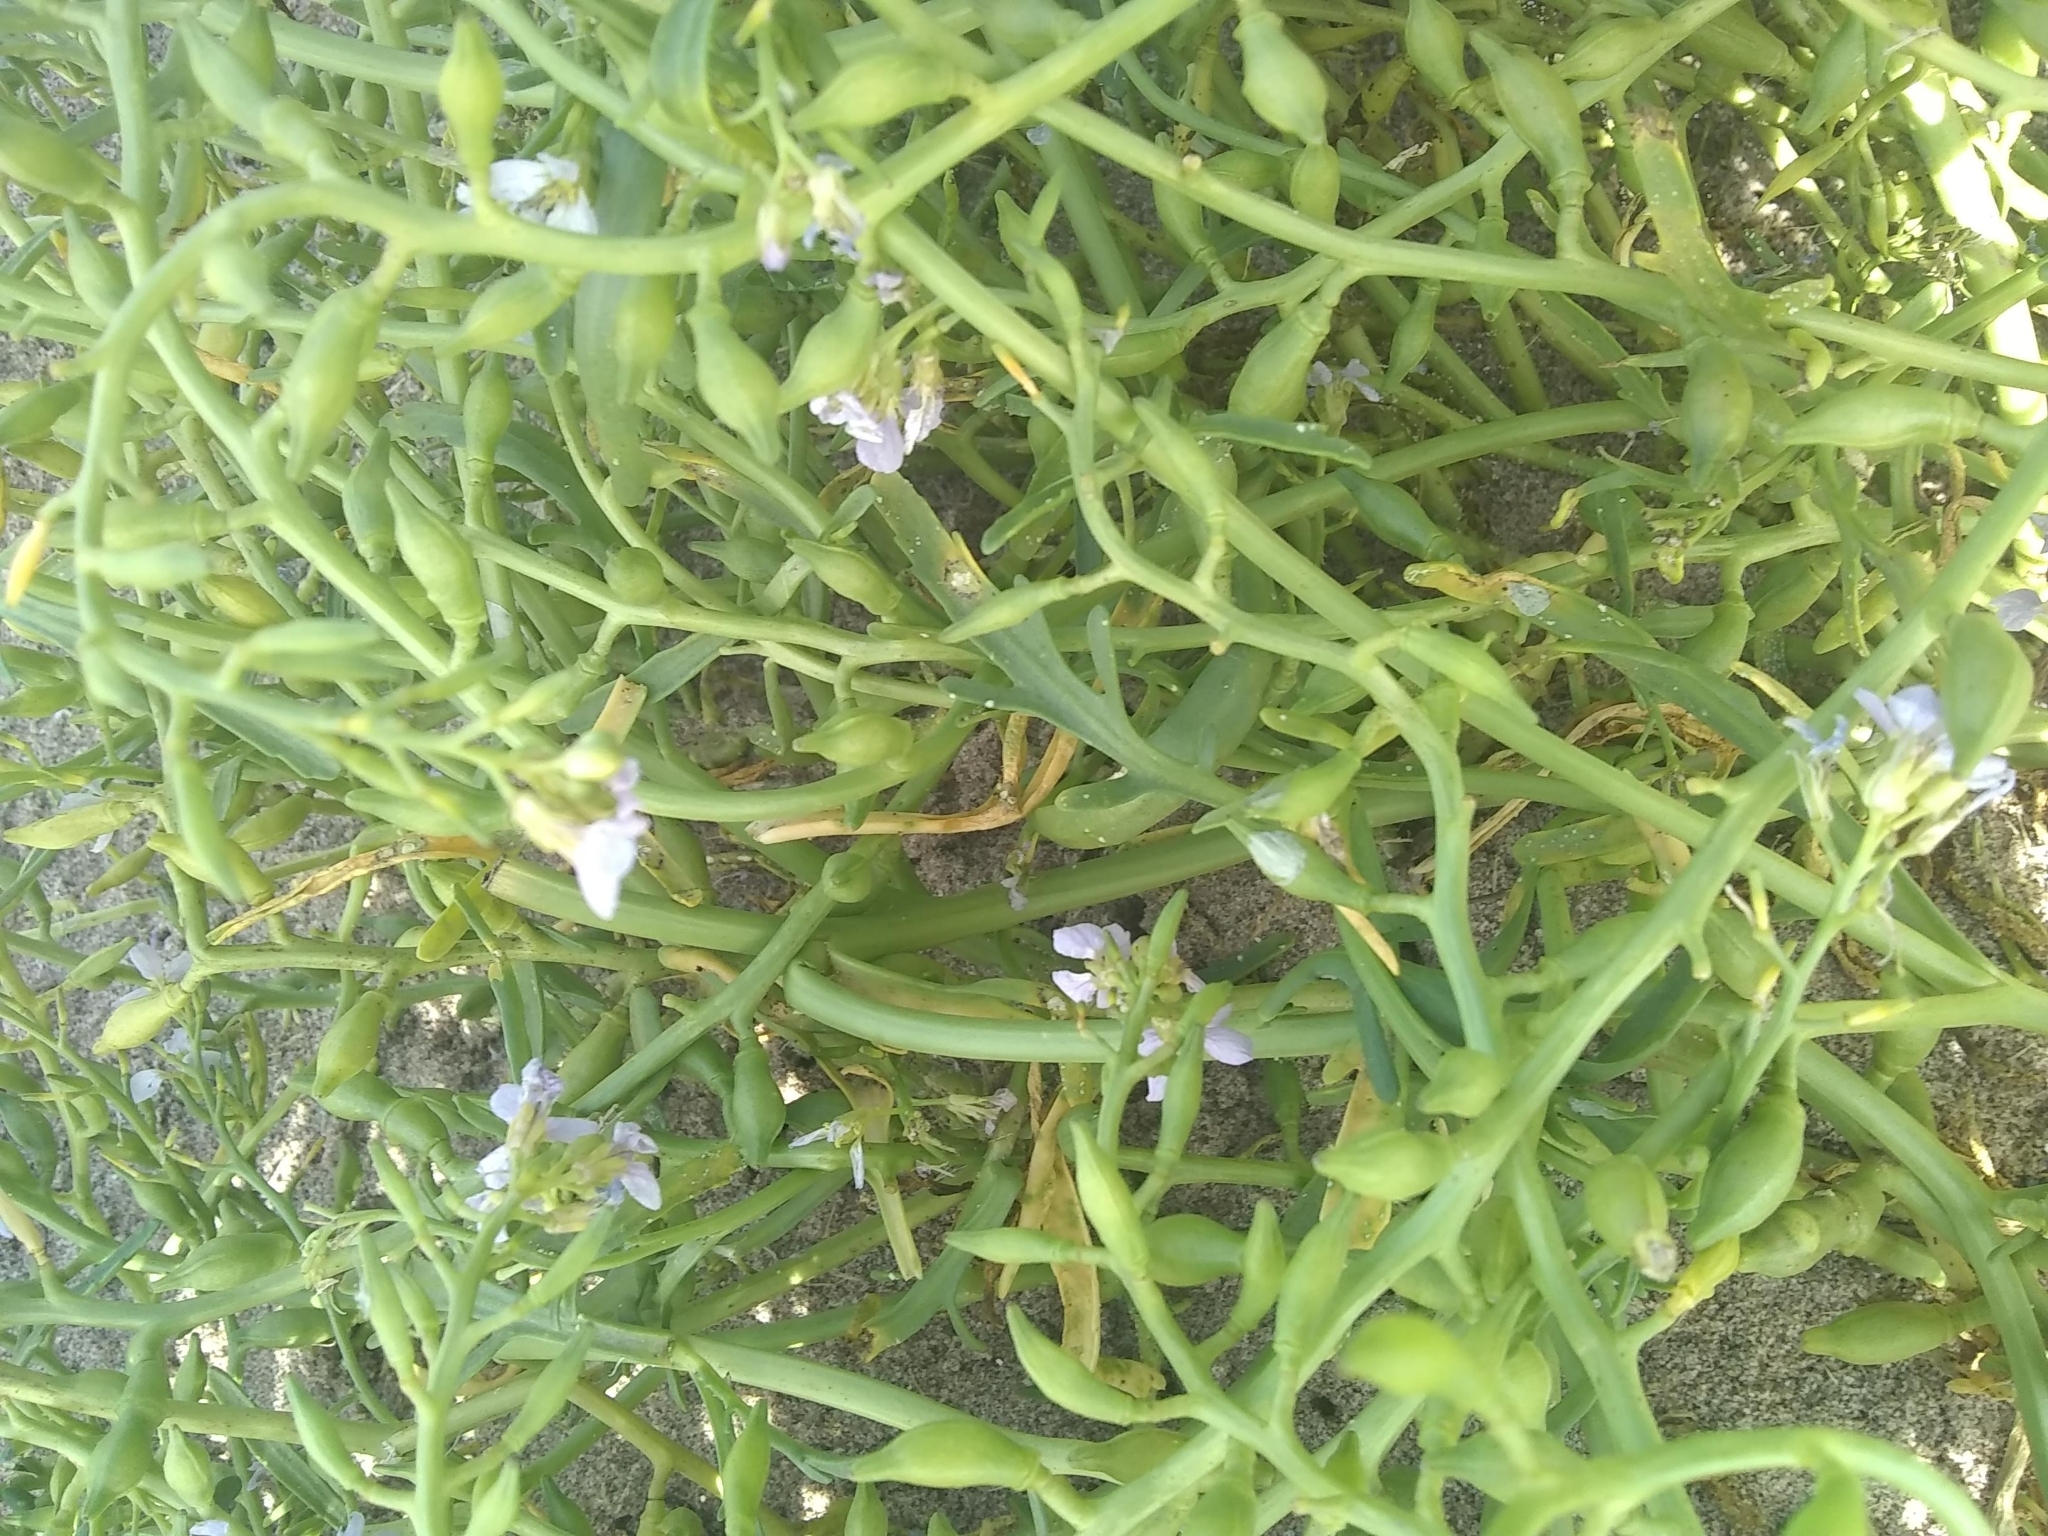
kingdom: Plantae
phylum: Tracheophyta
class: Magnoliopsida
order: Brassicales
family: Brassicaceae
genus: Cakile
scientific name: Cakile maritima
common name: Sea rocket
